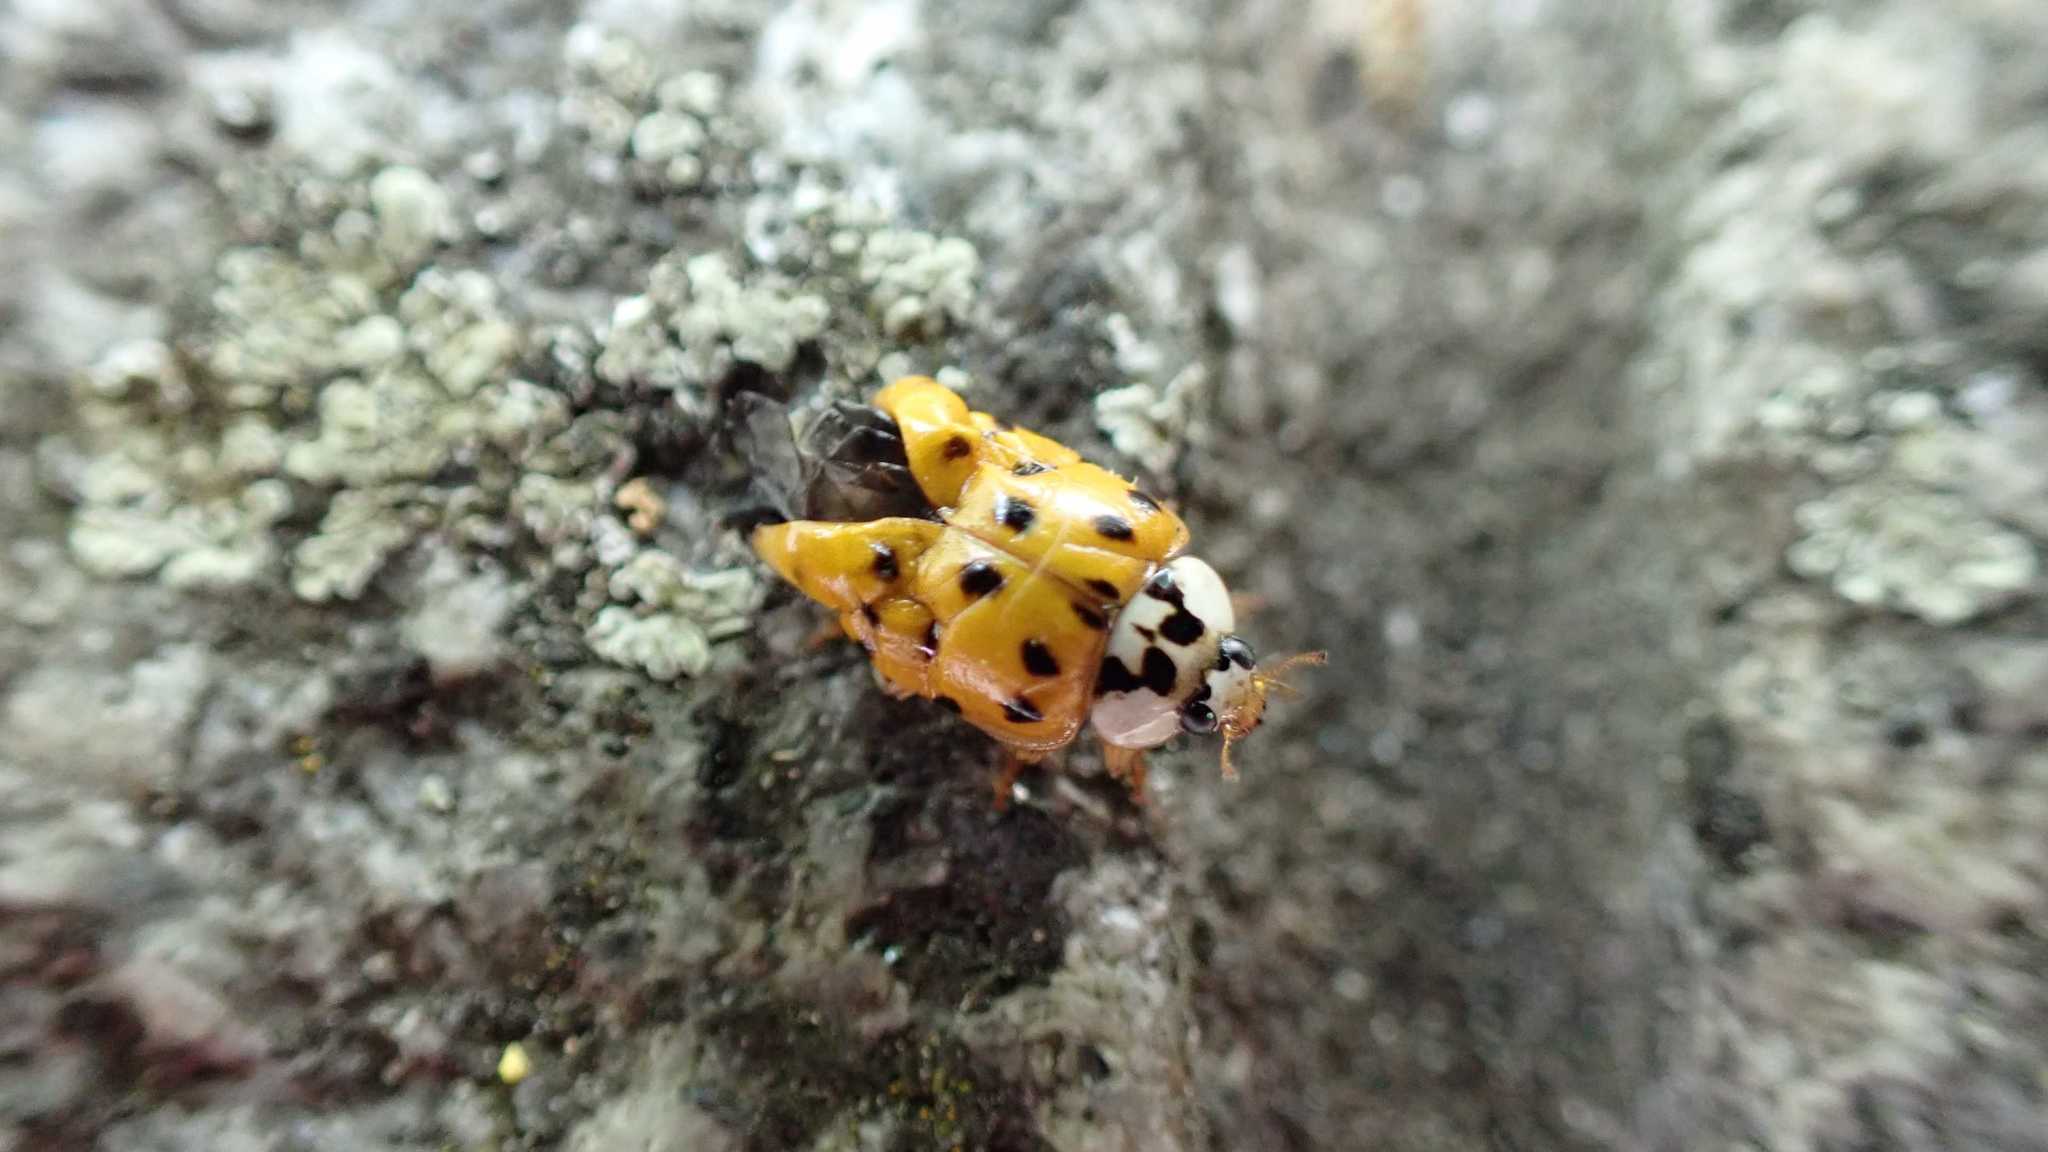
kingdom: Animalia
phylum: Arthropoda
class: Insecta
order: Coleoptera
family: Coccinellidae
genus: Harmonia
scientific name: Harmonia axyridis
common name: Harlequin ladybird
